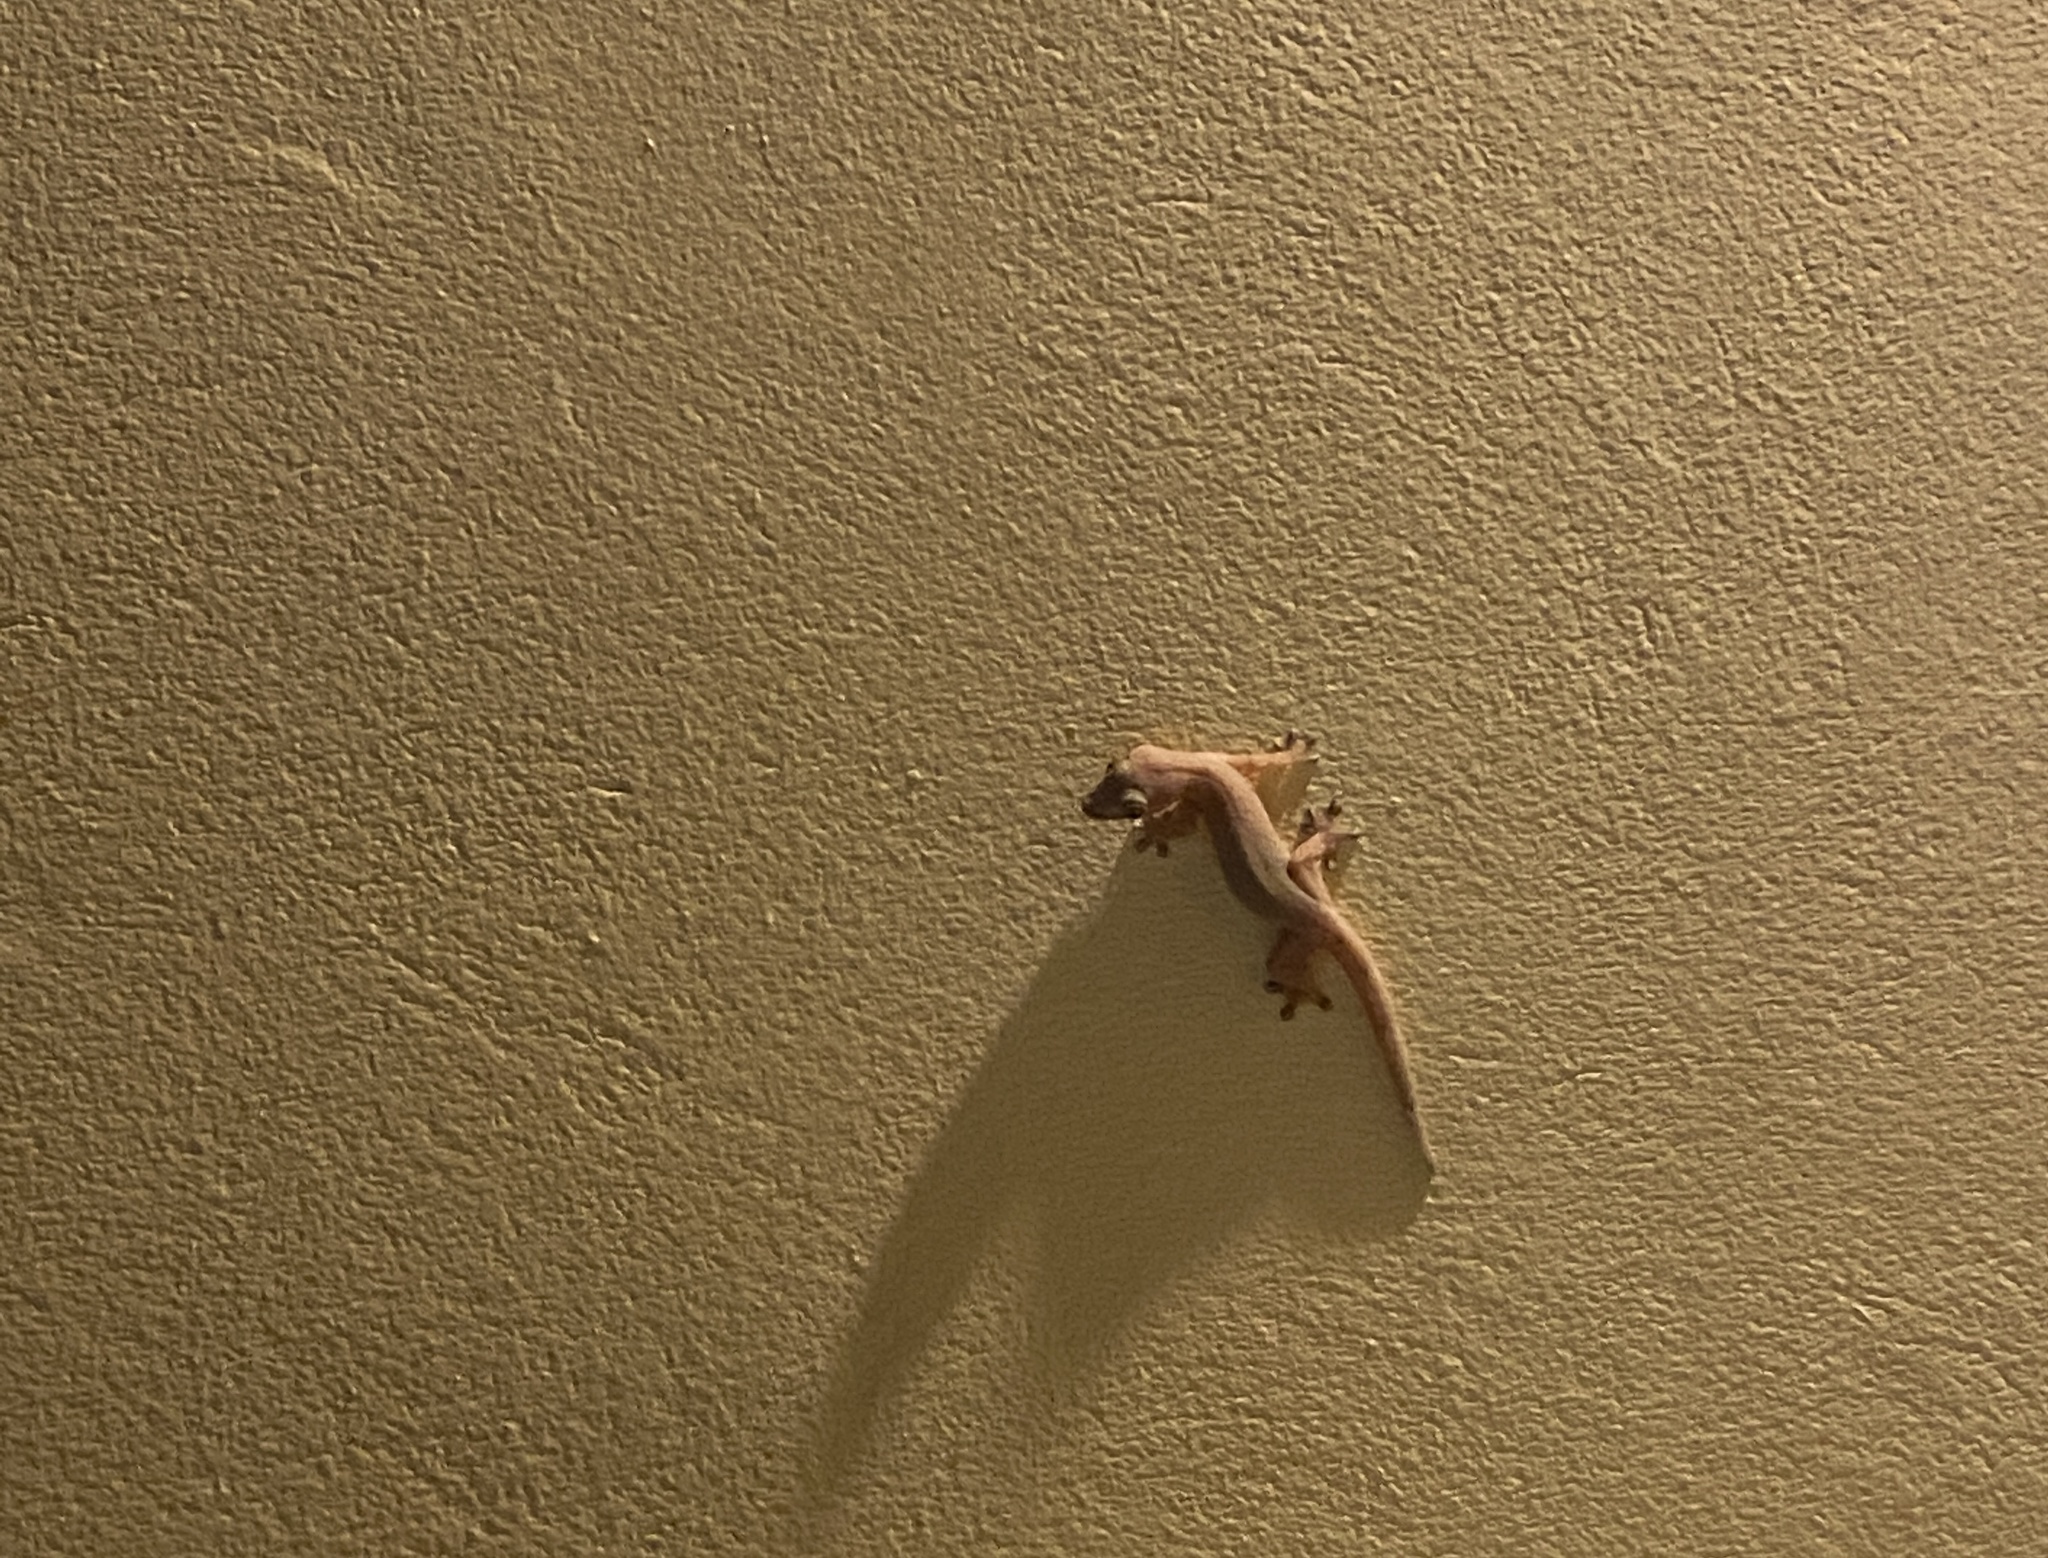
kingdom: Animalia
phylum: Chordata
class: Squamata
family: Phyllodactylidae
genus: Thecadactylus
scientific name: Thecadactylus rapicauda
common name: Turnip-tailed gecko
